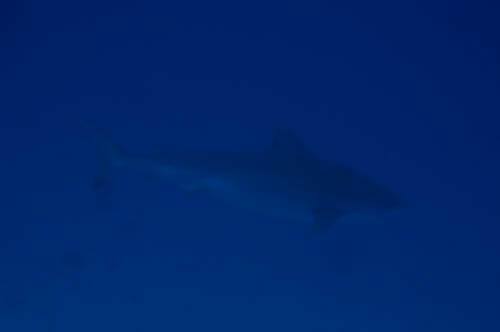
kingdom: Animalia
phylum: Chordata
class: Elasmobranchii
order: Carcharhiniformes
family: Carcharhinidae
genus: Galeocerdo
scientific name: Galeocerdo cuvier
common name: Tiger shark
